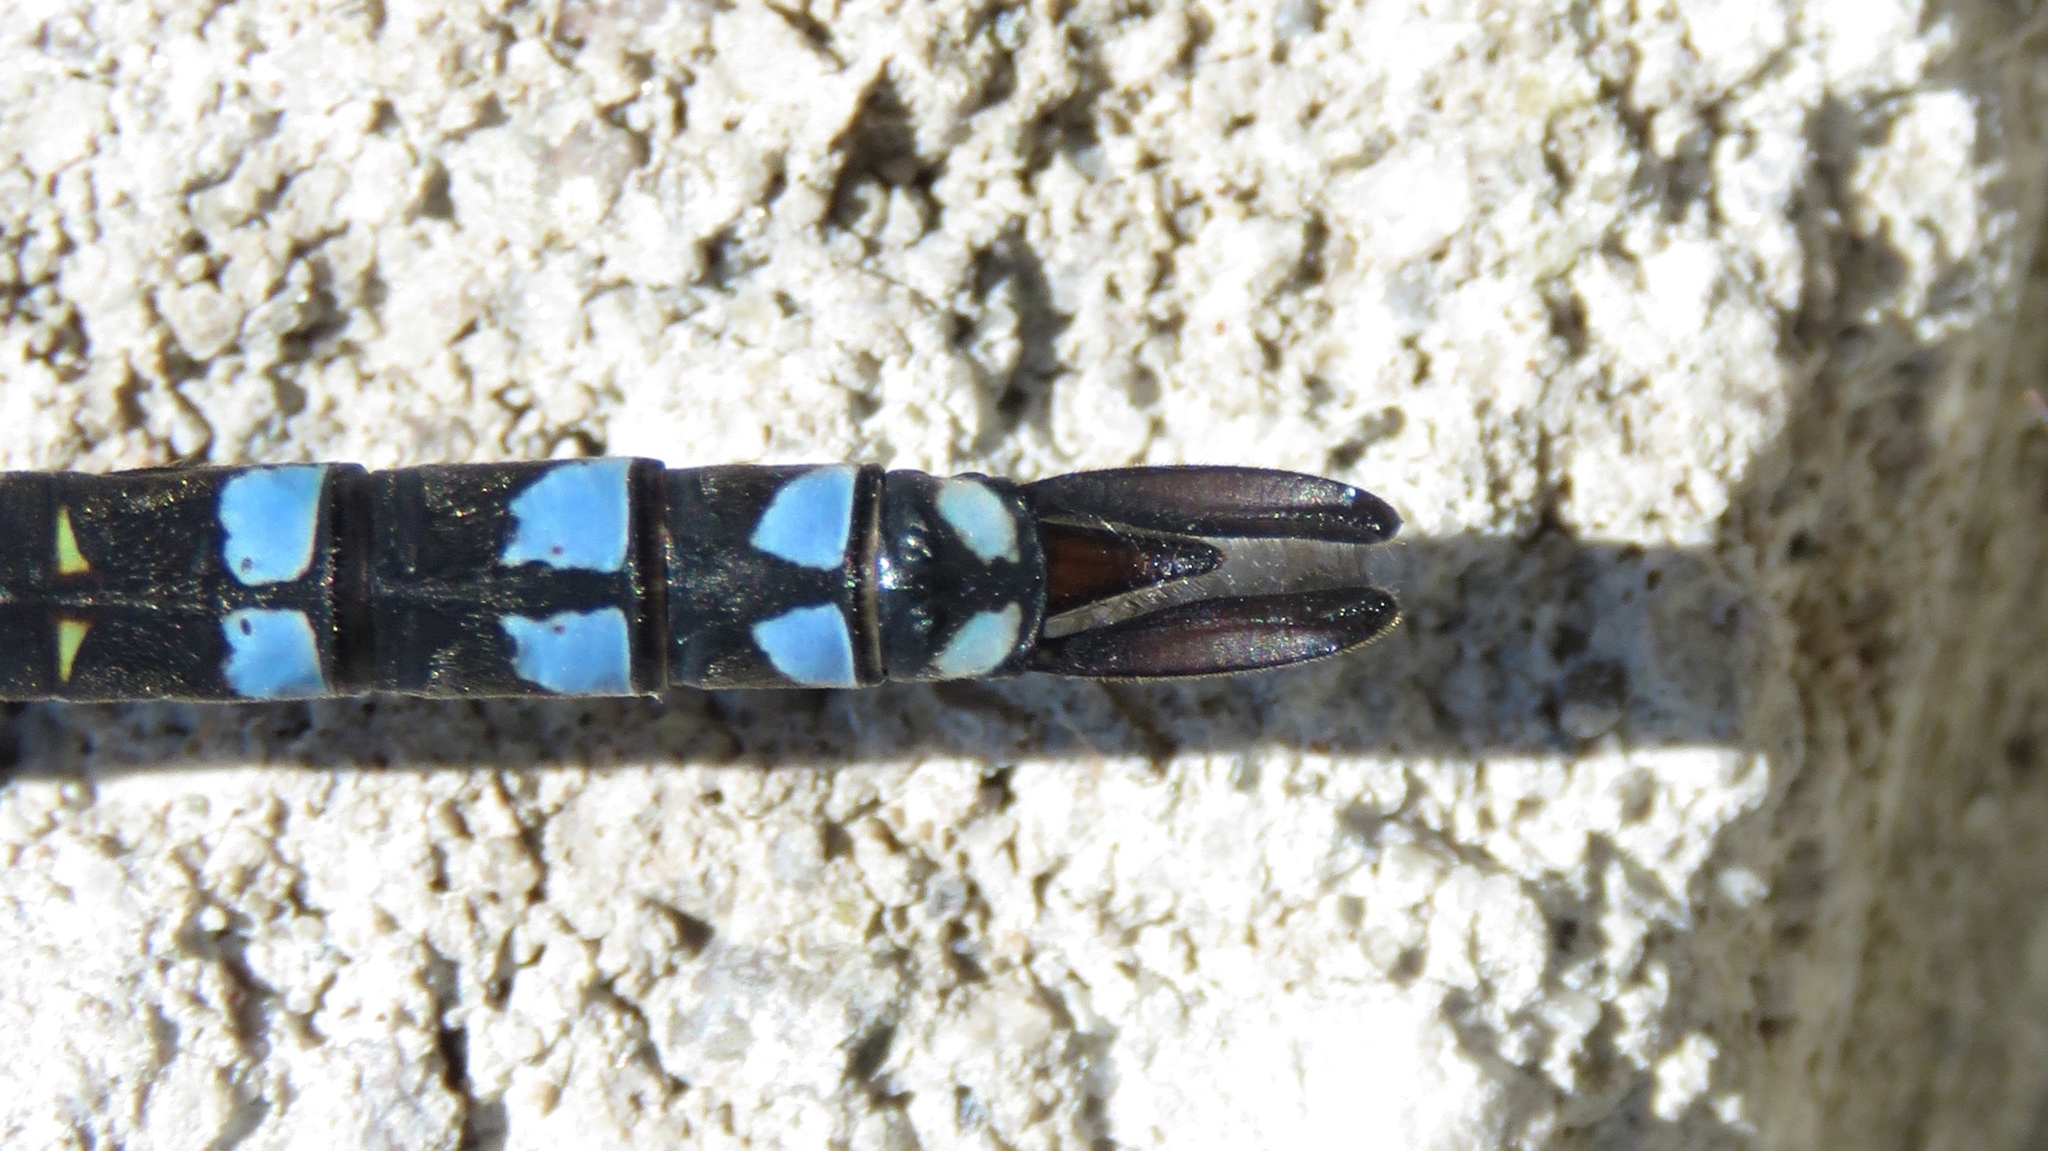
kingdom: Animalia
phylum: Arthropoda
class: Insecta
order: Odonata
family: Aeshnidae
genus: Aeshna
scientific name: Aeshna eremita
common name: Lake darner
